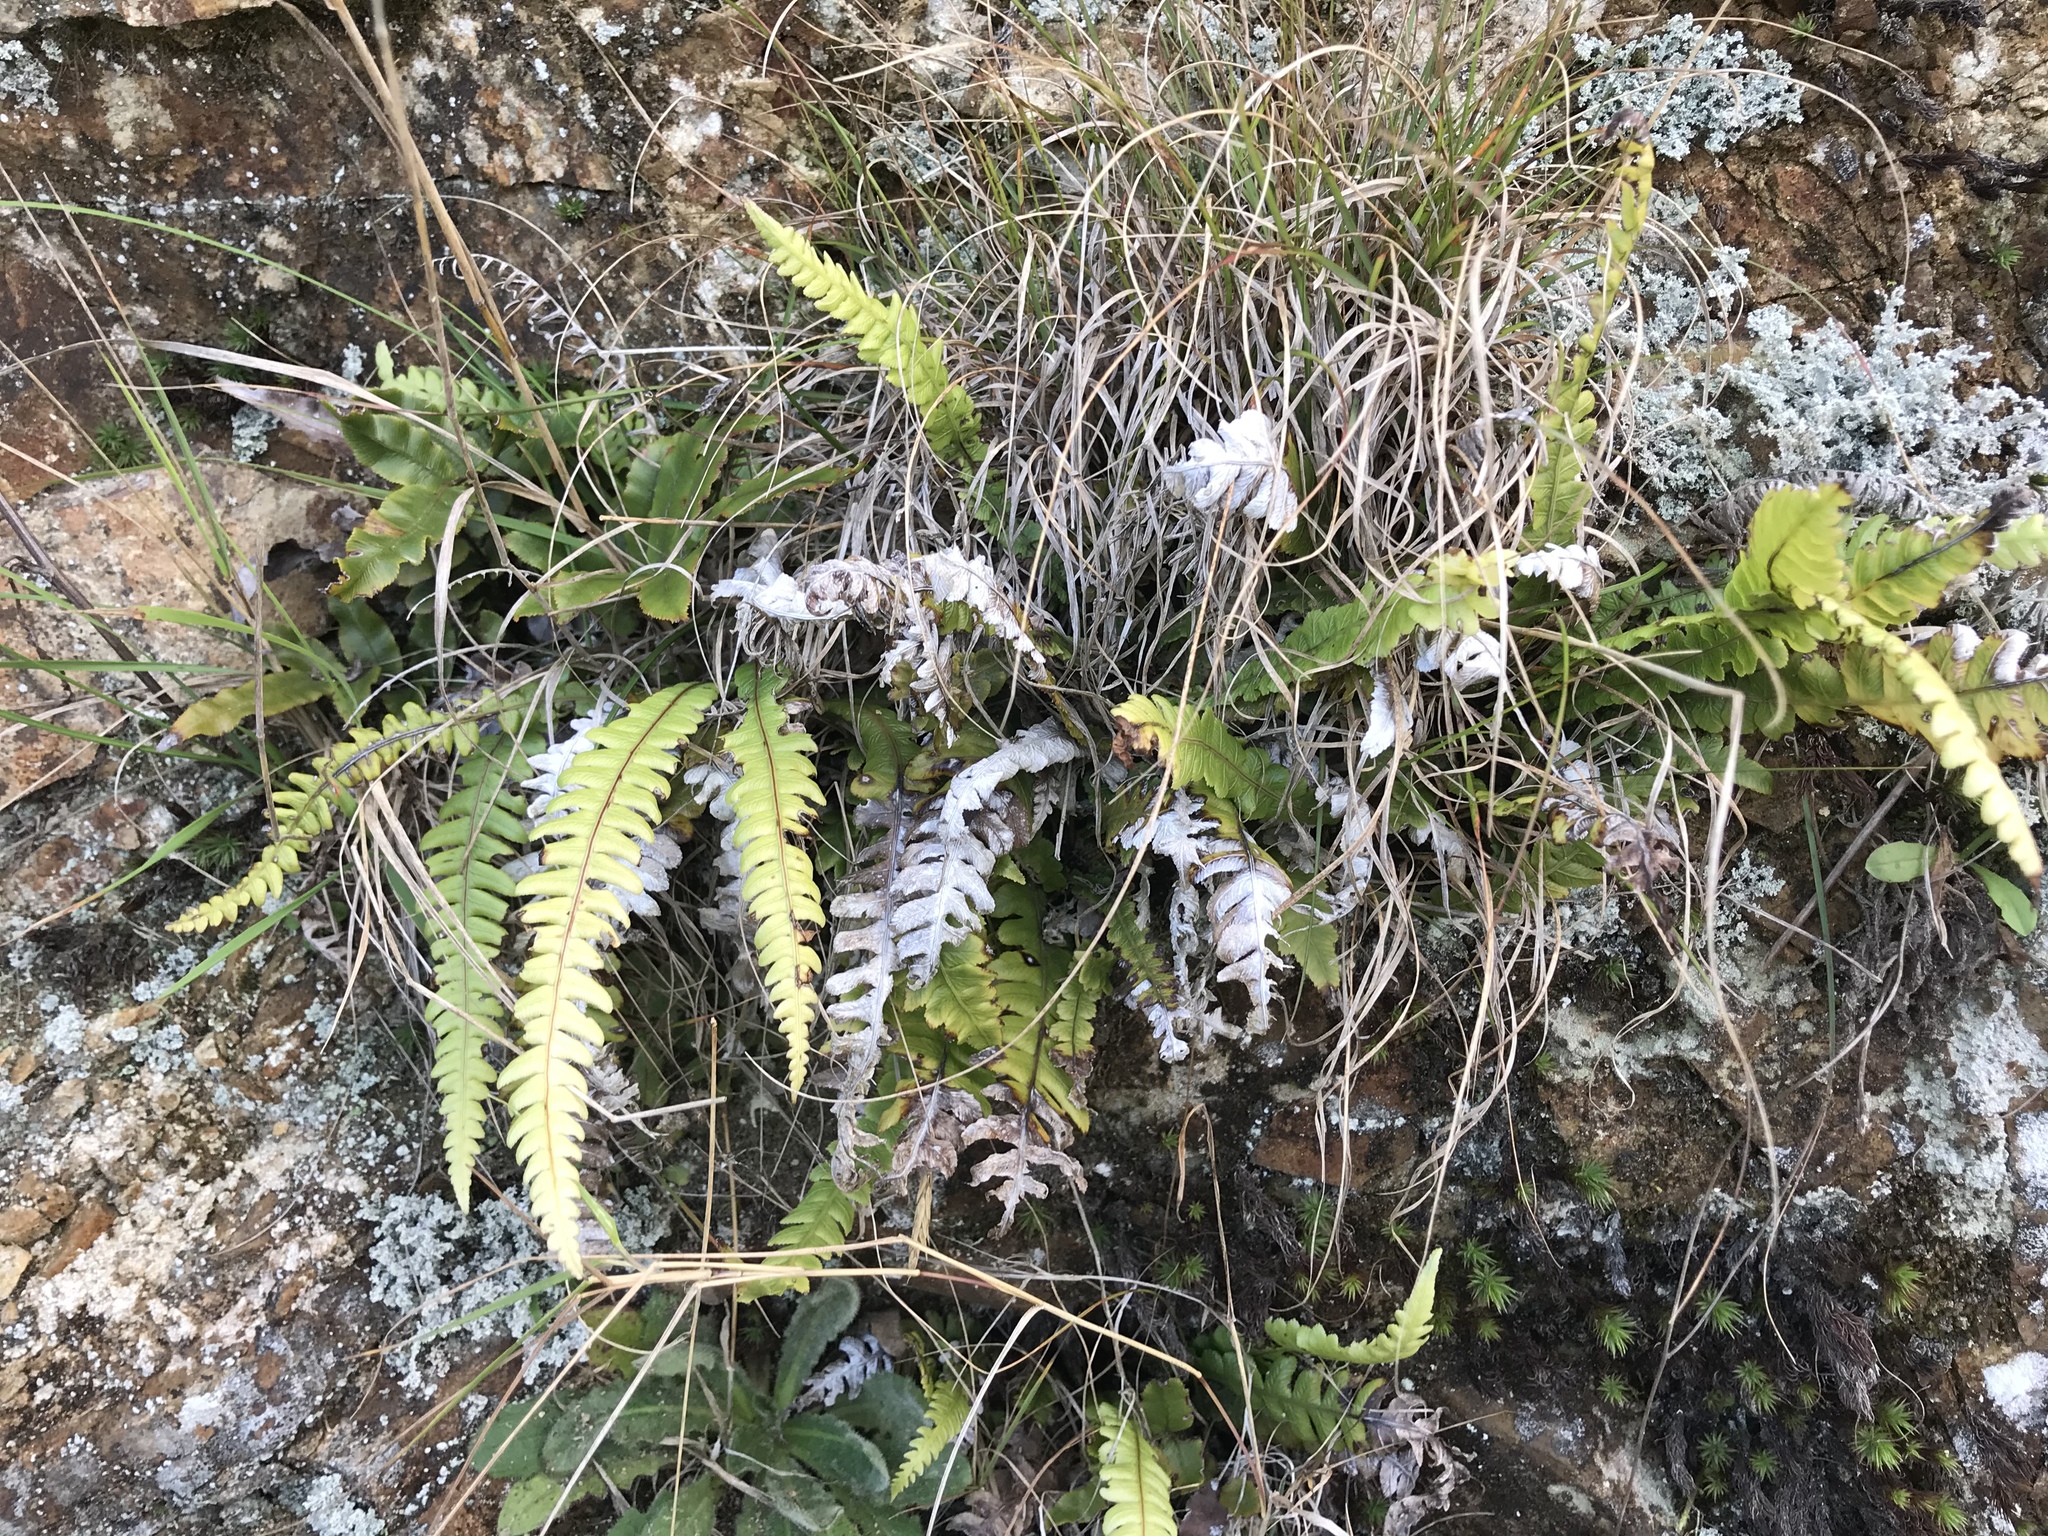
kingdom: Plantae
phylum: Tracheophyta
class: Polypodiopsida
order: Polypodiales
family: Blechnaceae
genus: Austroblechnum
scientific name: Austroblechnum membranaceum
